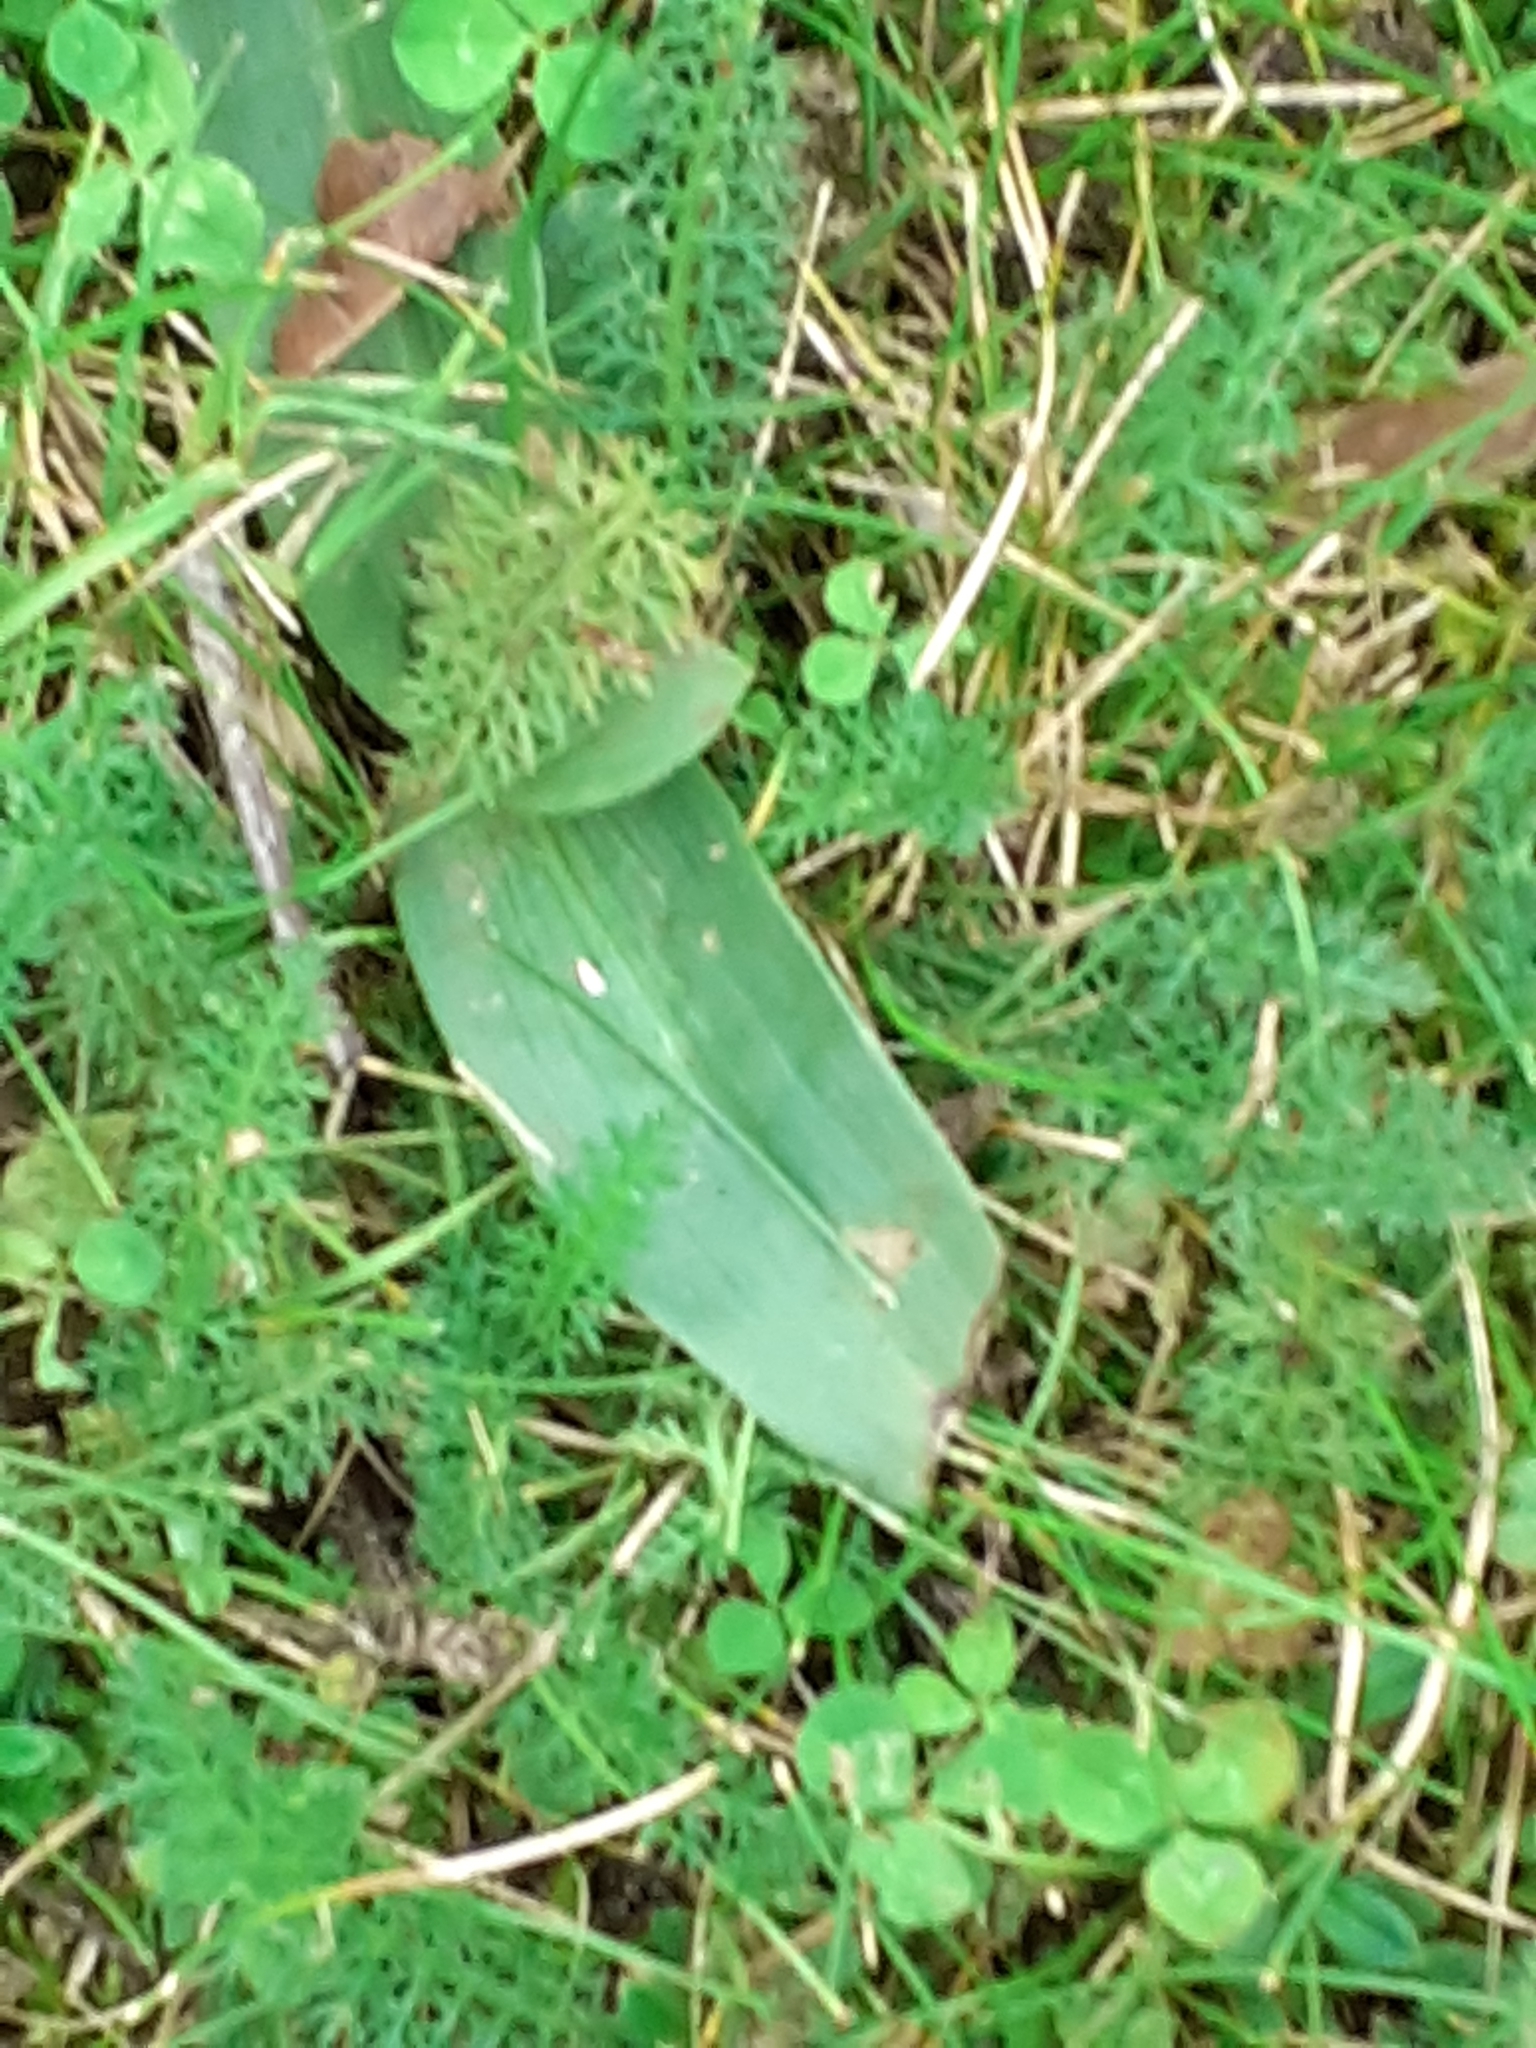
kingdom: Plantae
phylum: Tracheophyta
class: Liliopsida
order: Asparagales
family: Orchidaceae
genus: Ophrys
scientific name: Ophrys apifera
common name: Bee orchid
